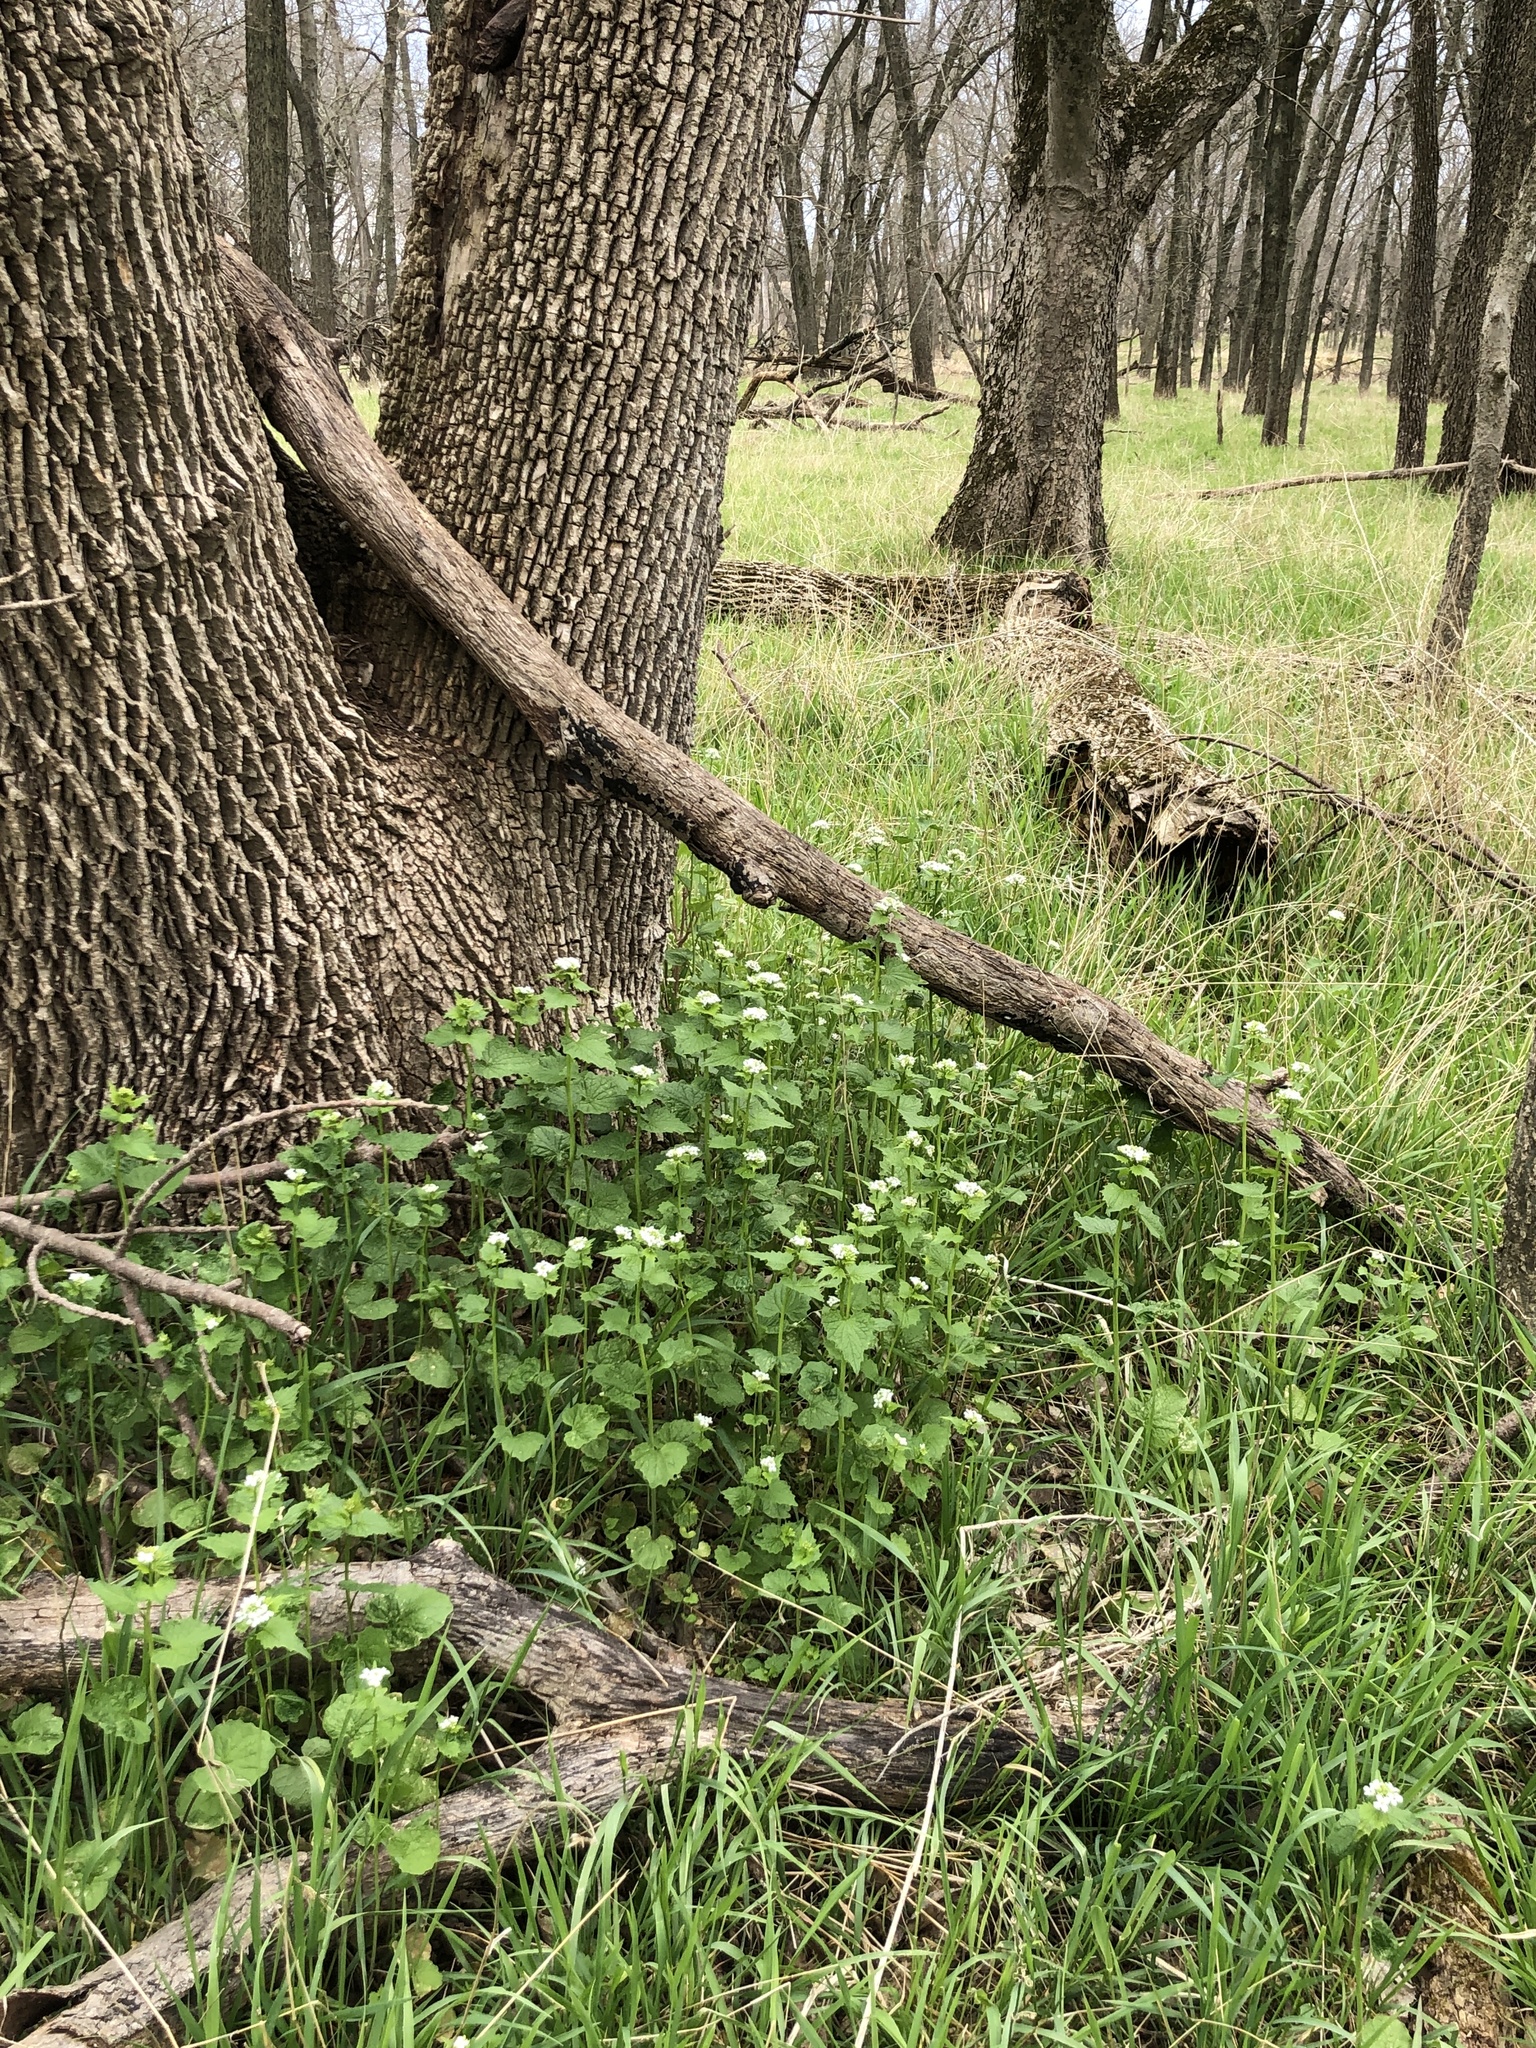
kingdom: Plantae
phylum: Tracheophyta
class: Magnoliopsida
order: Brassicales
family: Brassicaceae
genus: Alliaria
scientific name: Alliaria petiolata
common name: Garlic mustard
